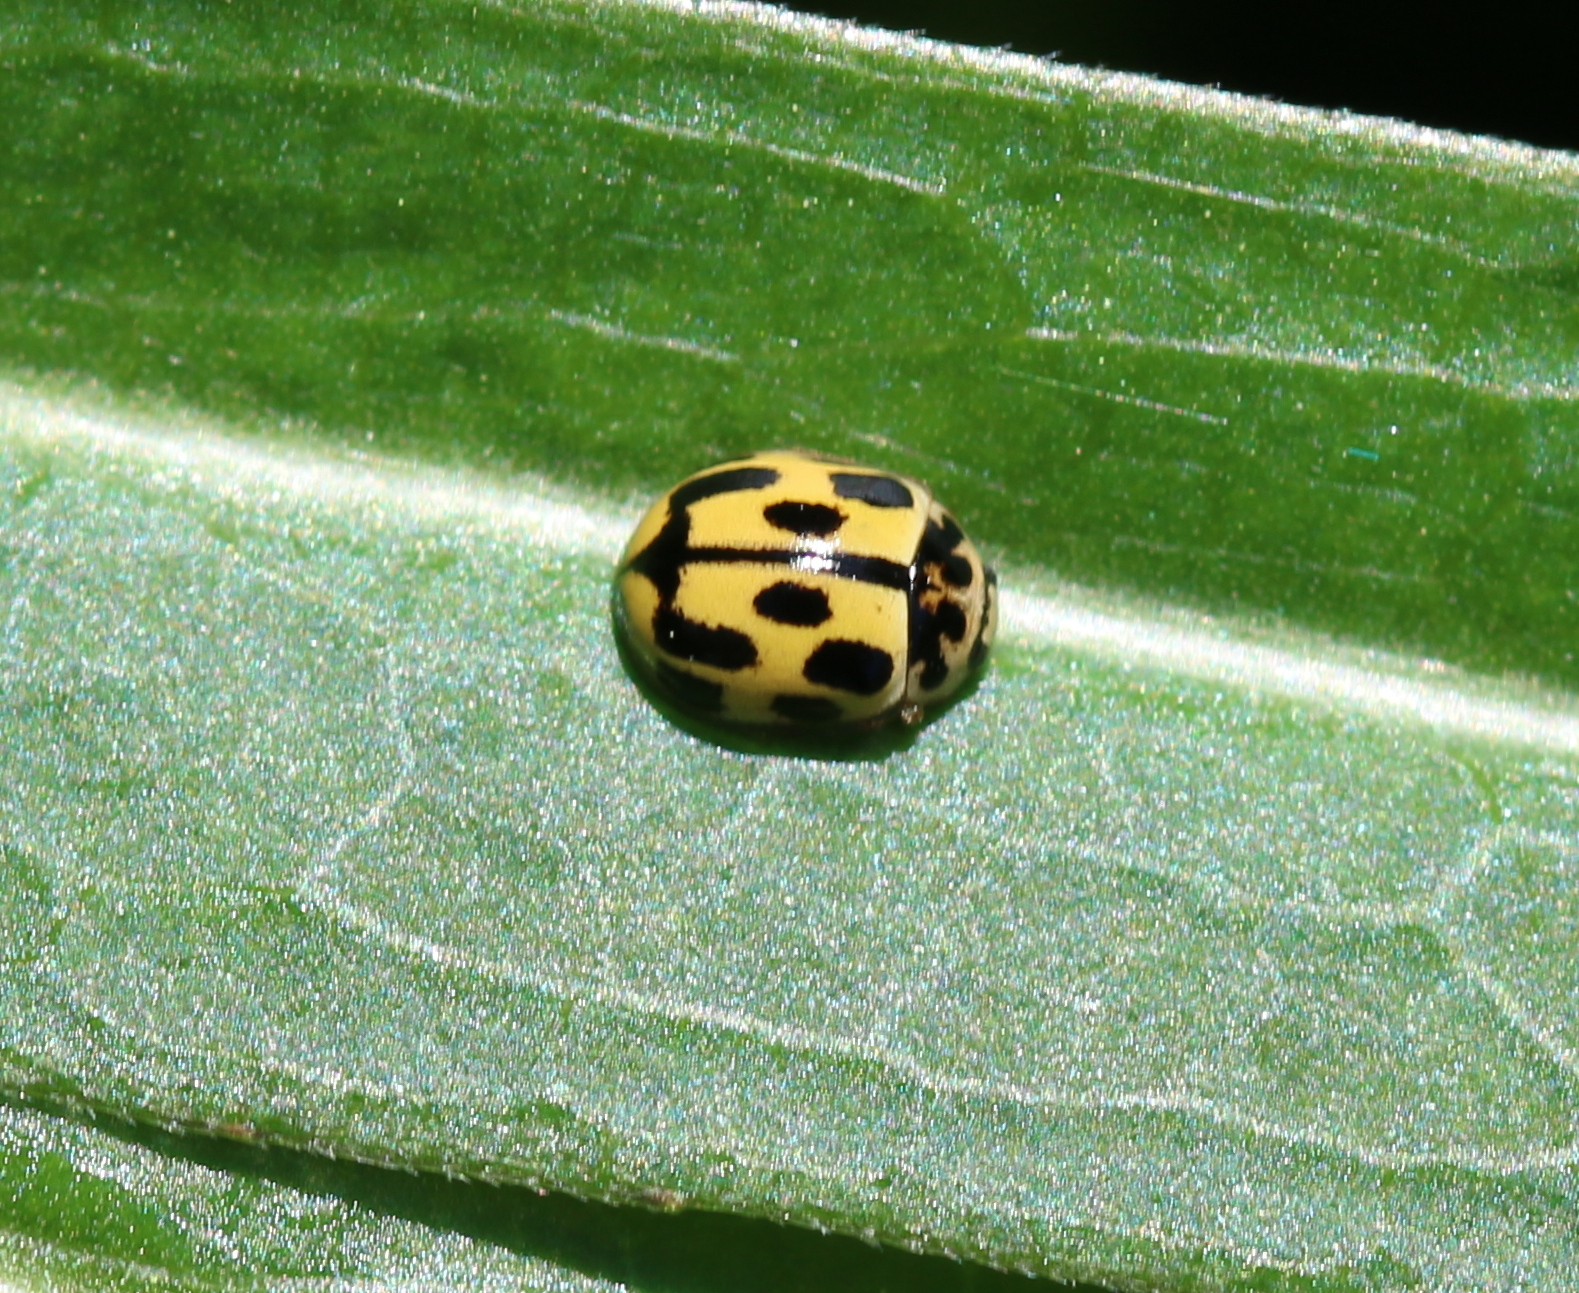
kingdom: Animalia
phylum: Arthropoda
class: Insecta
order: Coleoptera
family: Coccinellidae
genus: Propylaea
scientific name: Propylaea quatuordecimpunctata
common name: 14-spotted ladybird beetle
